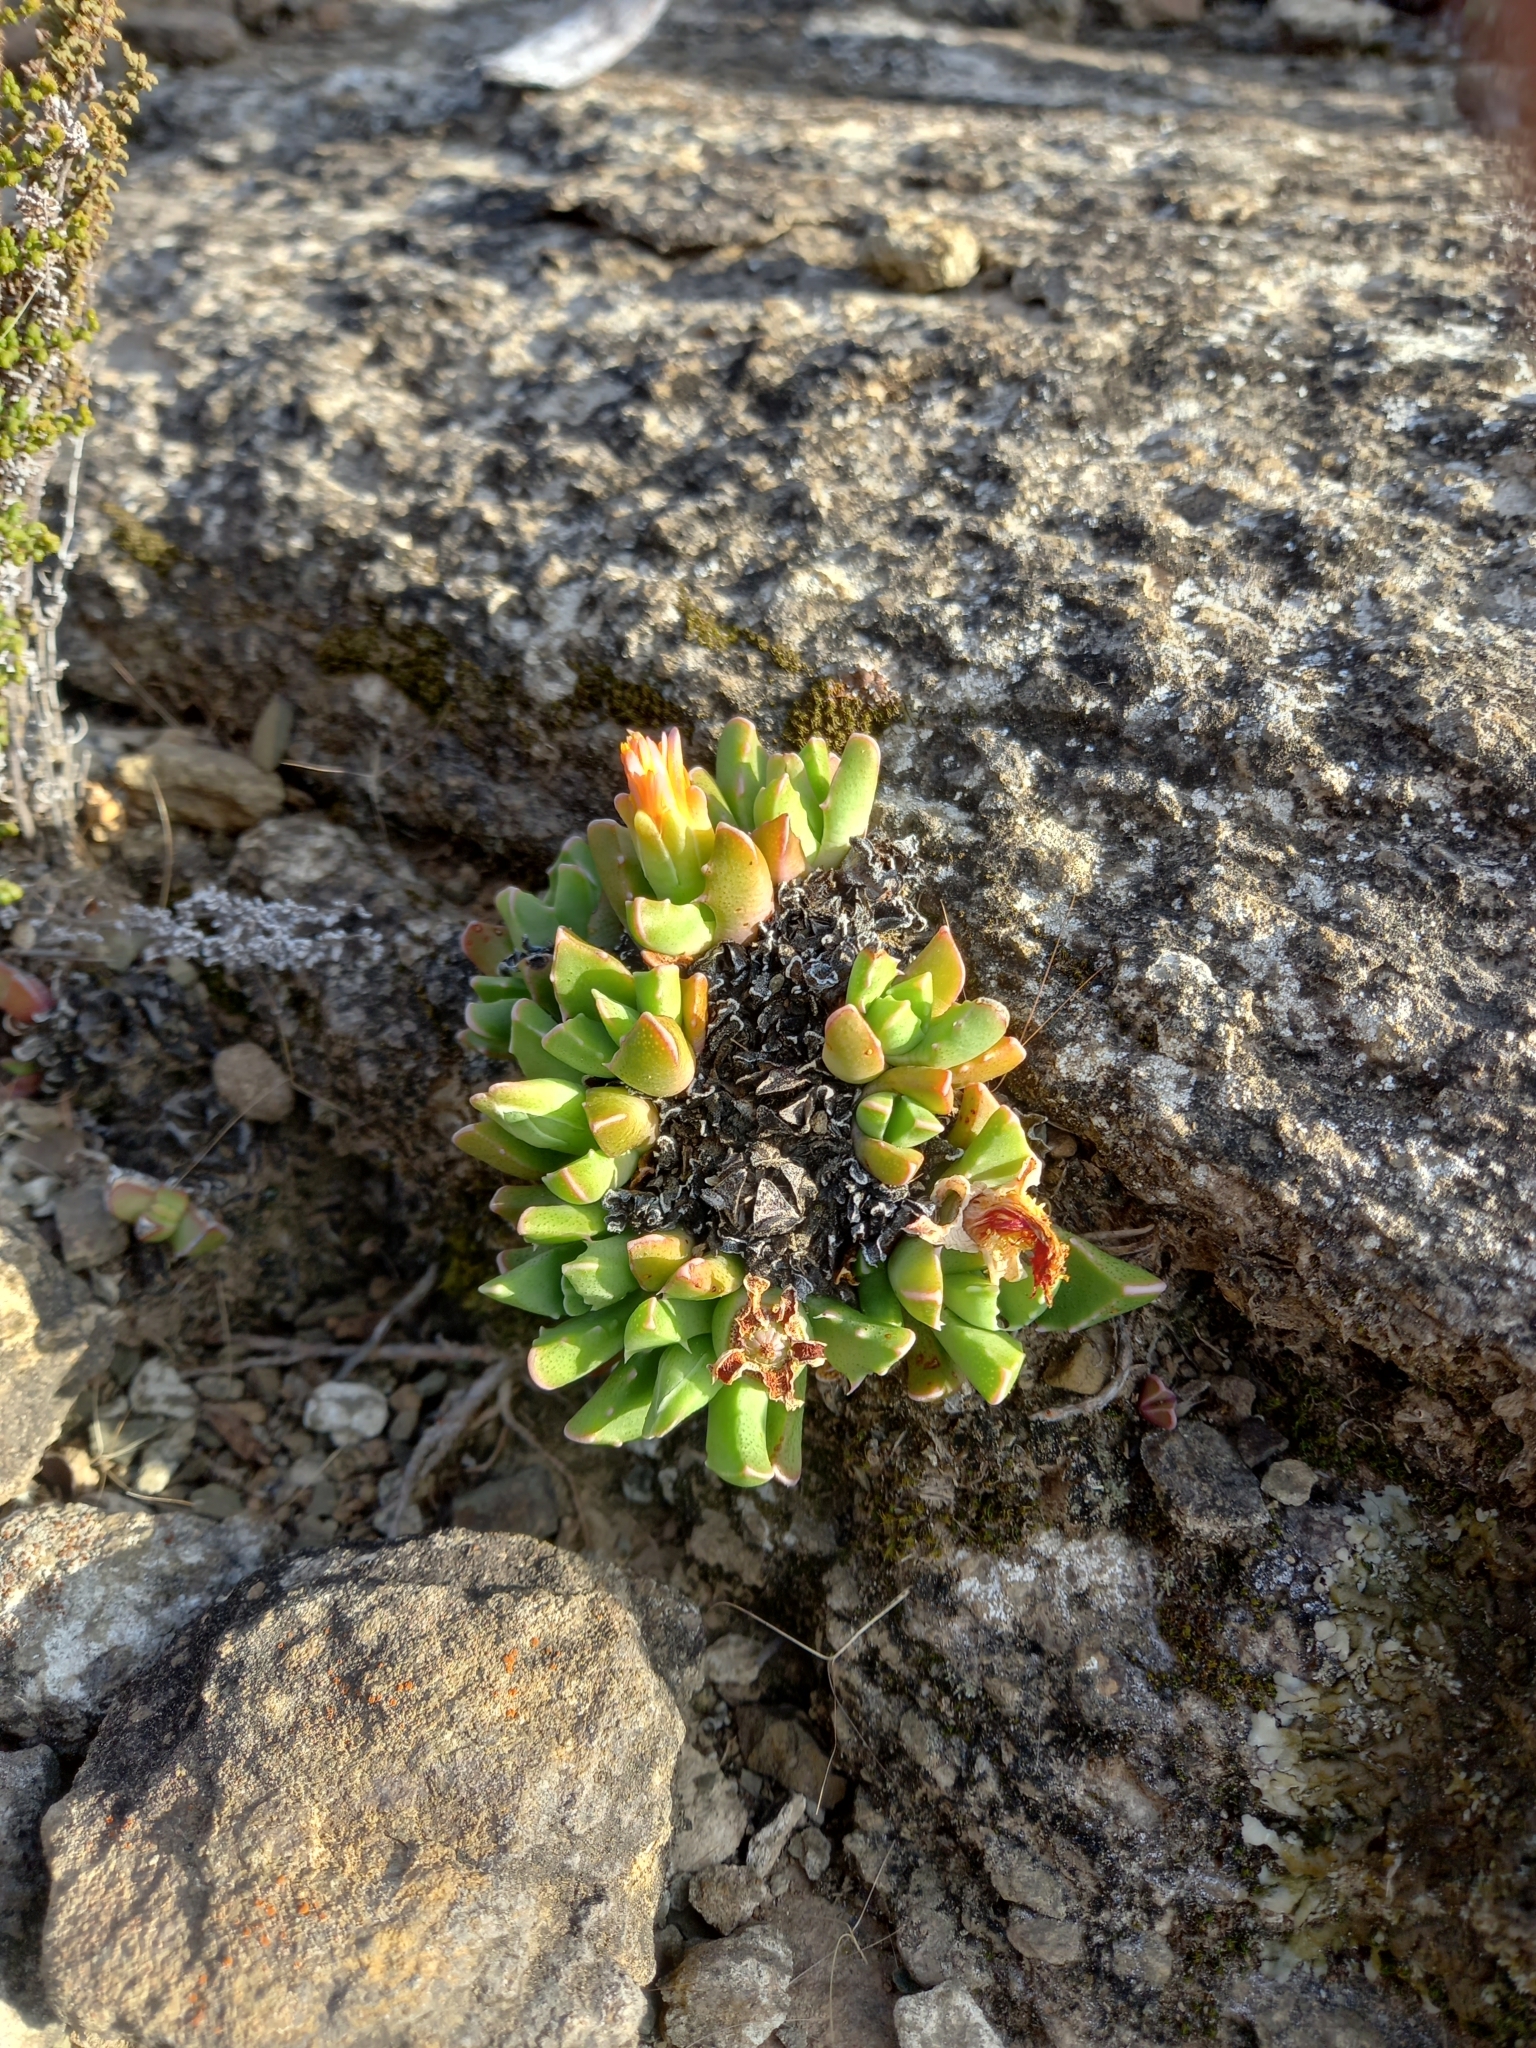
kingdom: Plantae
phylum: Tracheophyta
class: Magnoliopsida
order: Caryophyllales
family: Aizoaceae
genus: Faucaria
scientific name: Faucaria bosscheana
